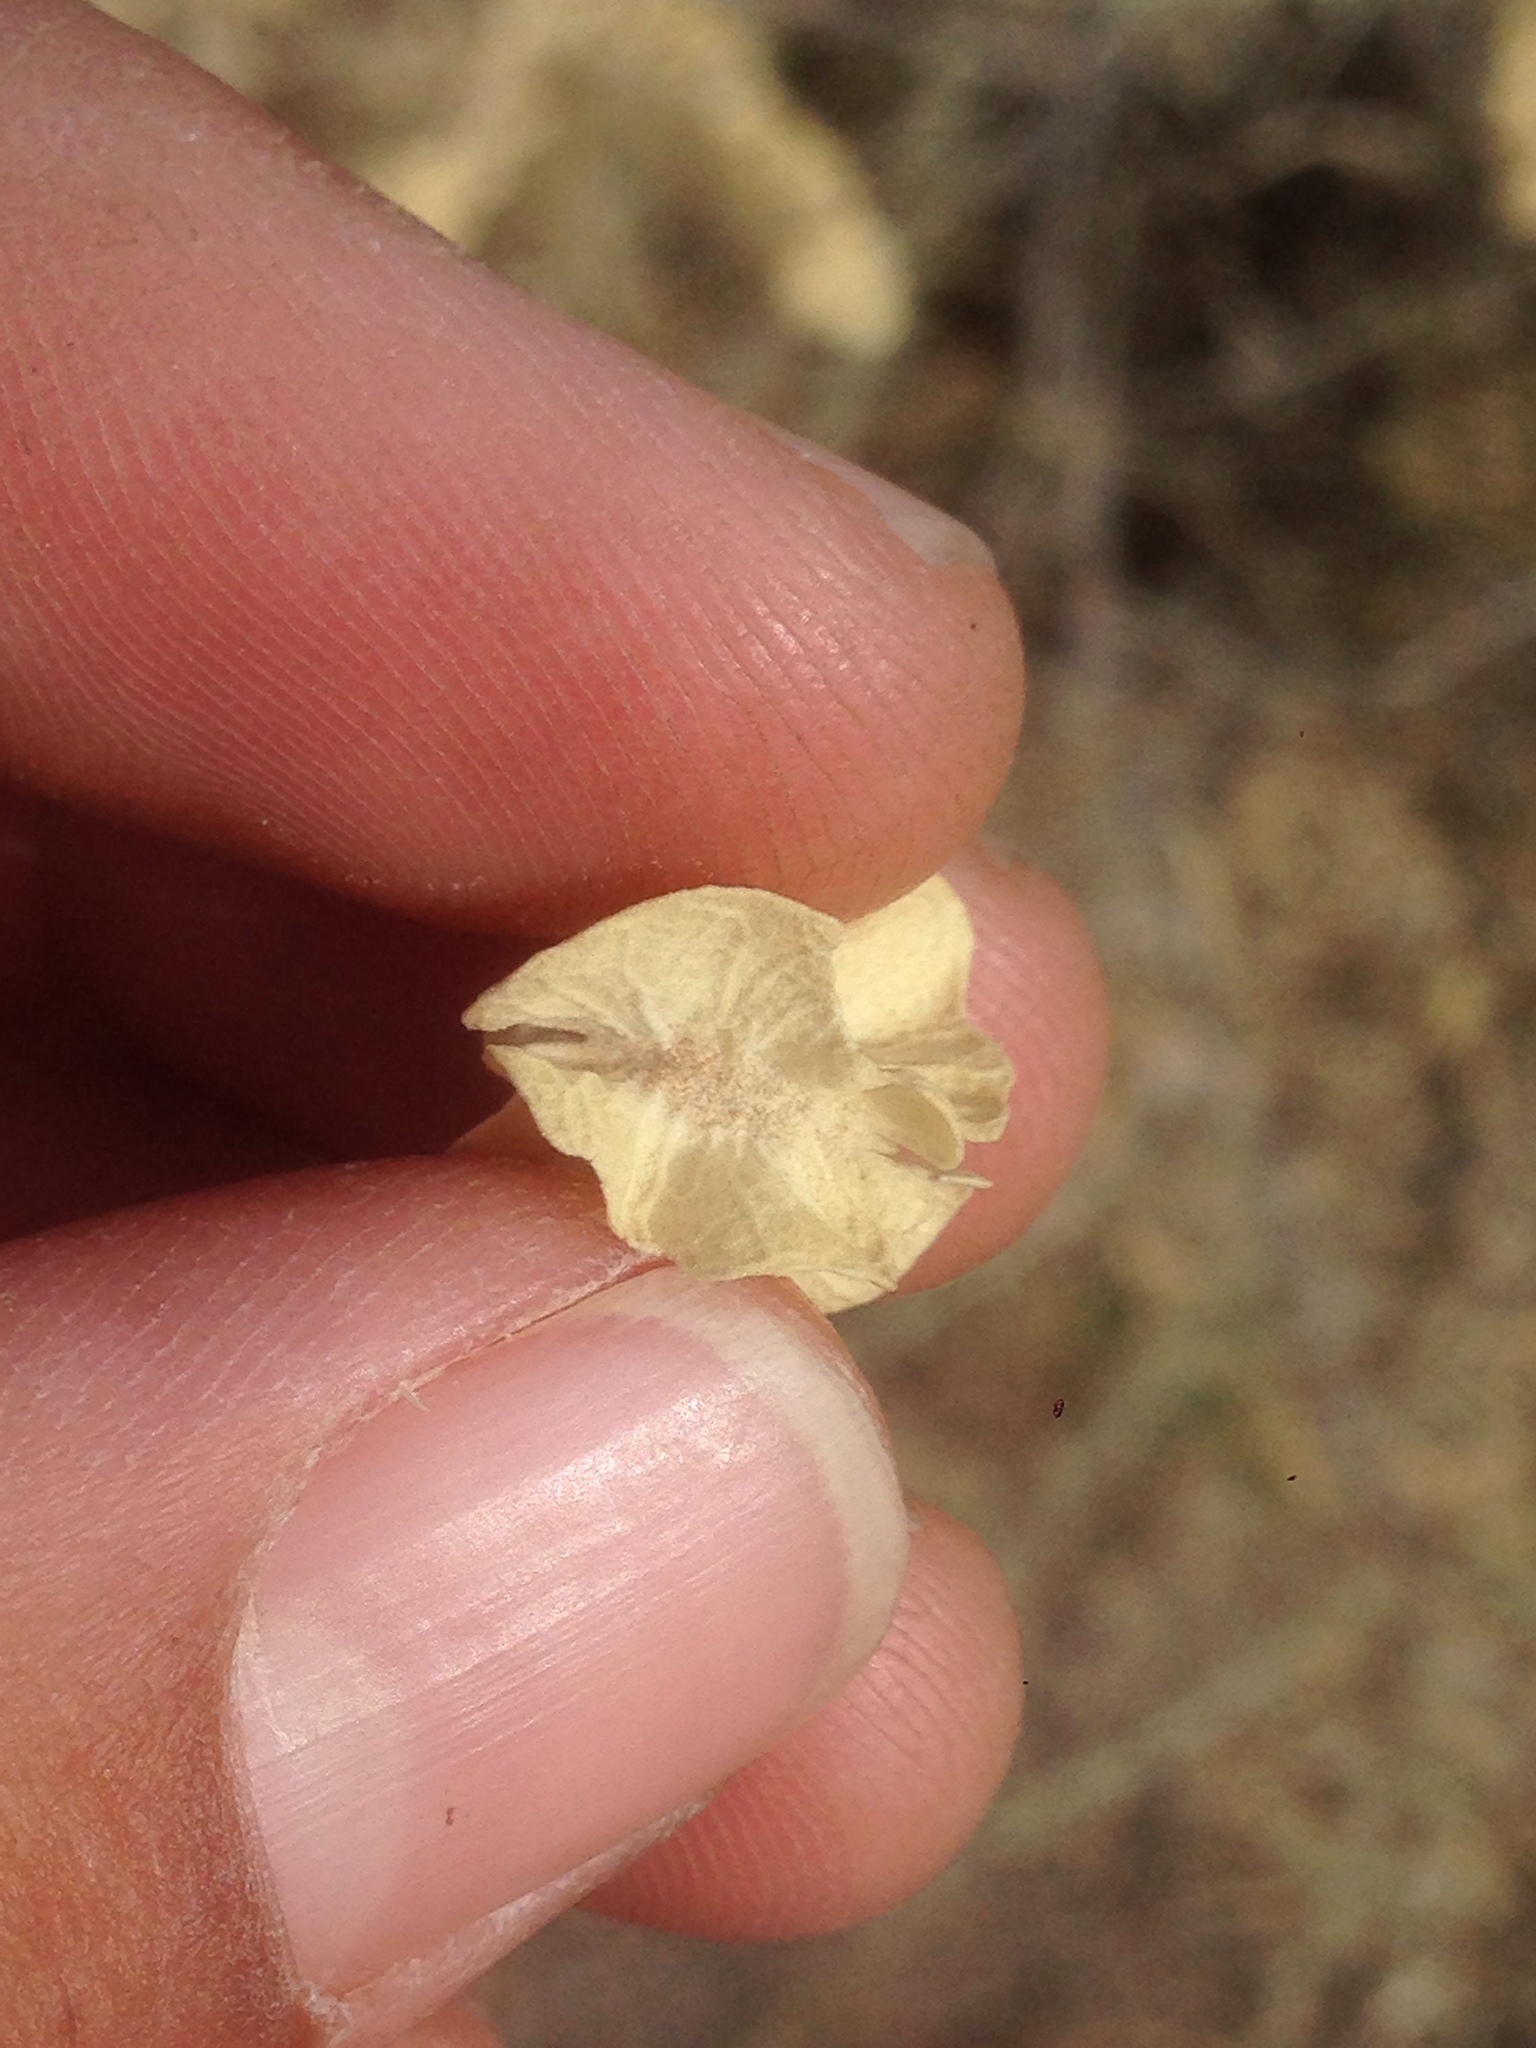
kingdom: Plantae
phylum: Tracheophyta
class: Magnoliopsida
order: Caryophyllales
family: Amaranthaceae
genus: Atriplex
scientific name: Atriplex canescens
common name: Four-wing saltbush
